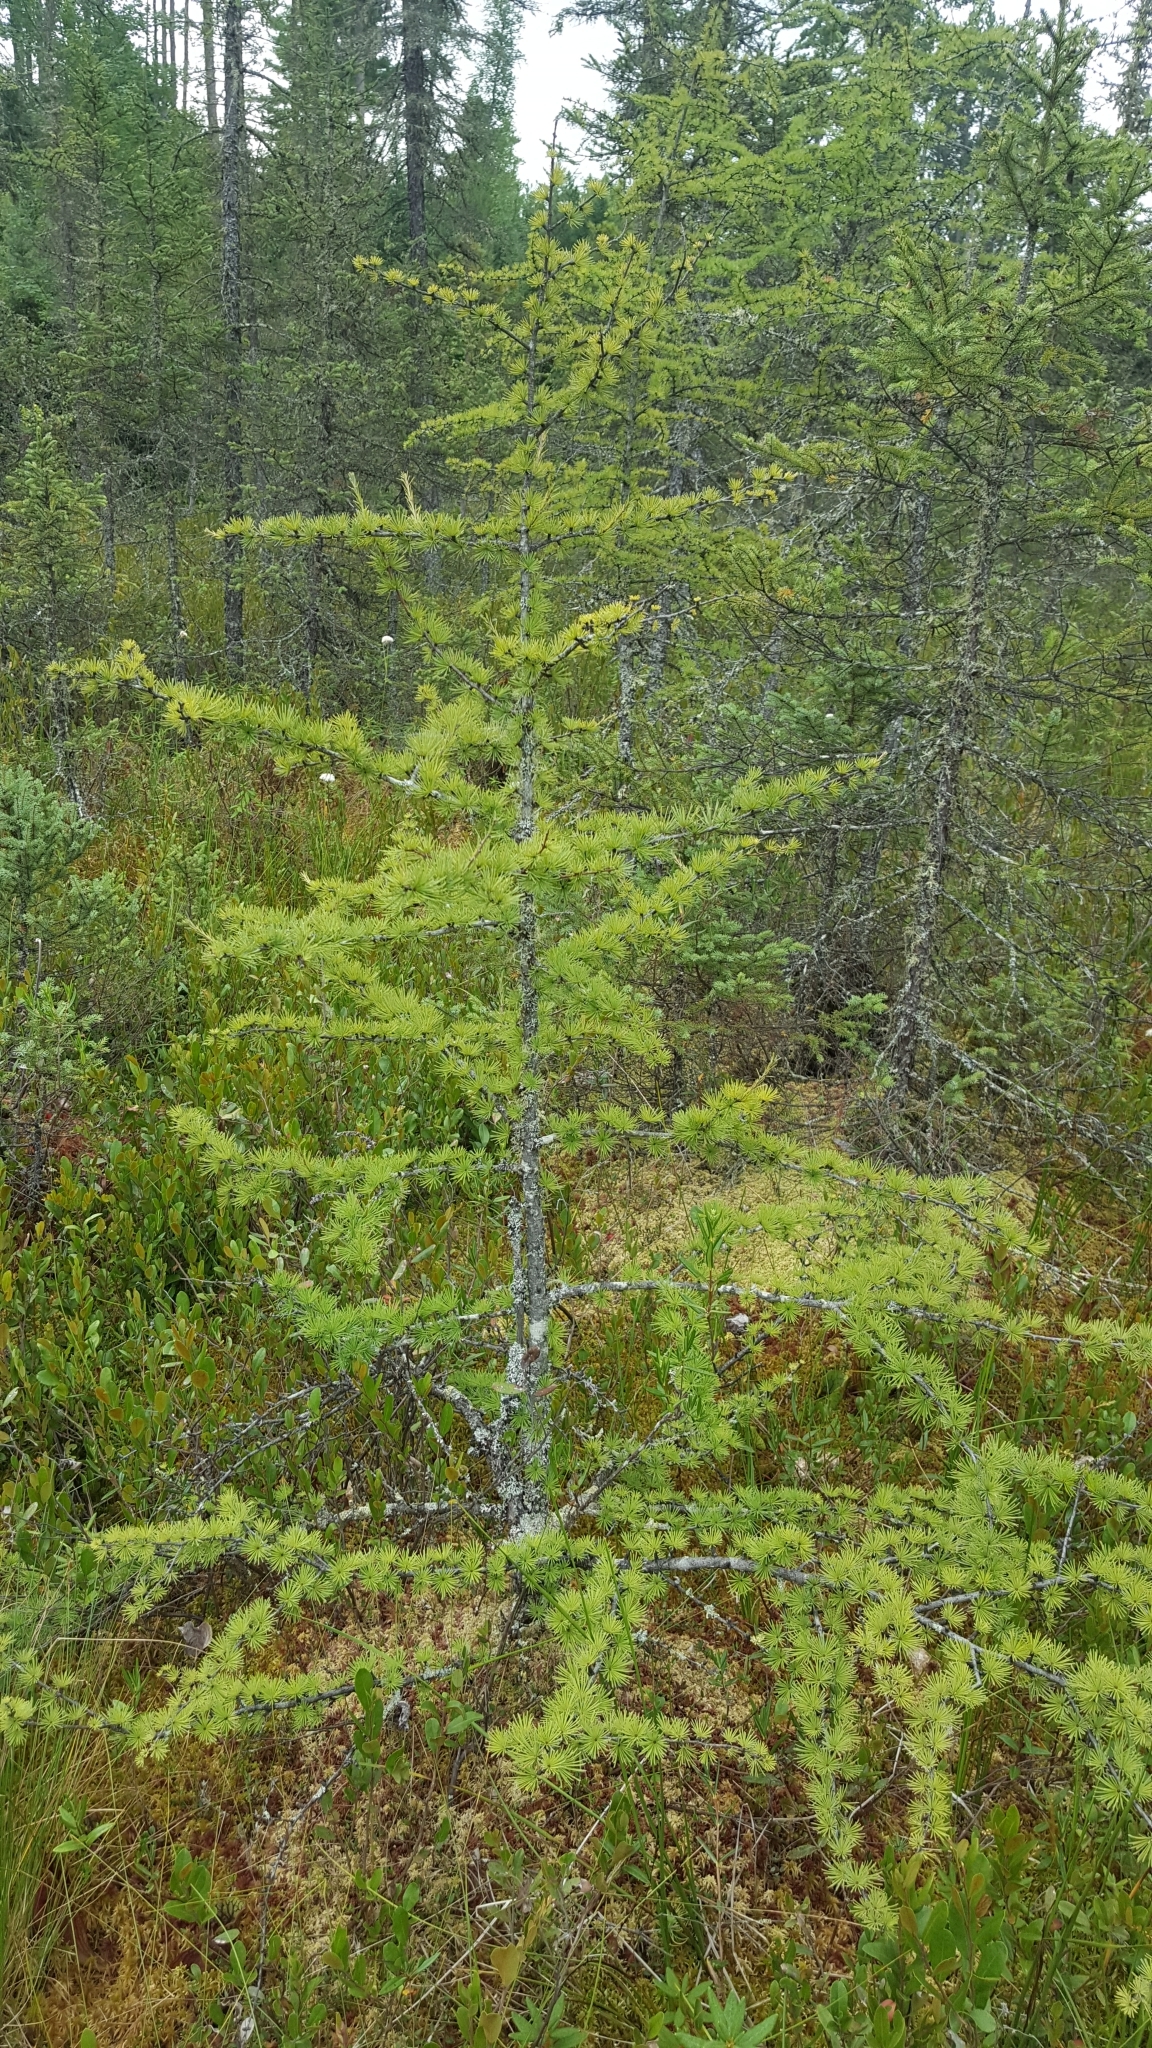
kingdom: Plantae
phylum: Tracheophyta
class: Pinopsida
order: Pinales
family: Pinaceae
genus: Larix
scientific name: Larix laricina
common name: American larch
